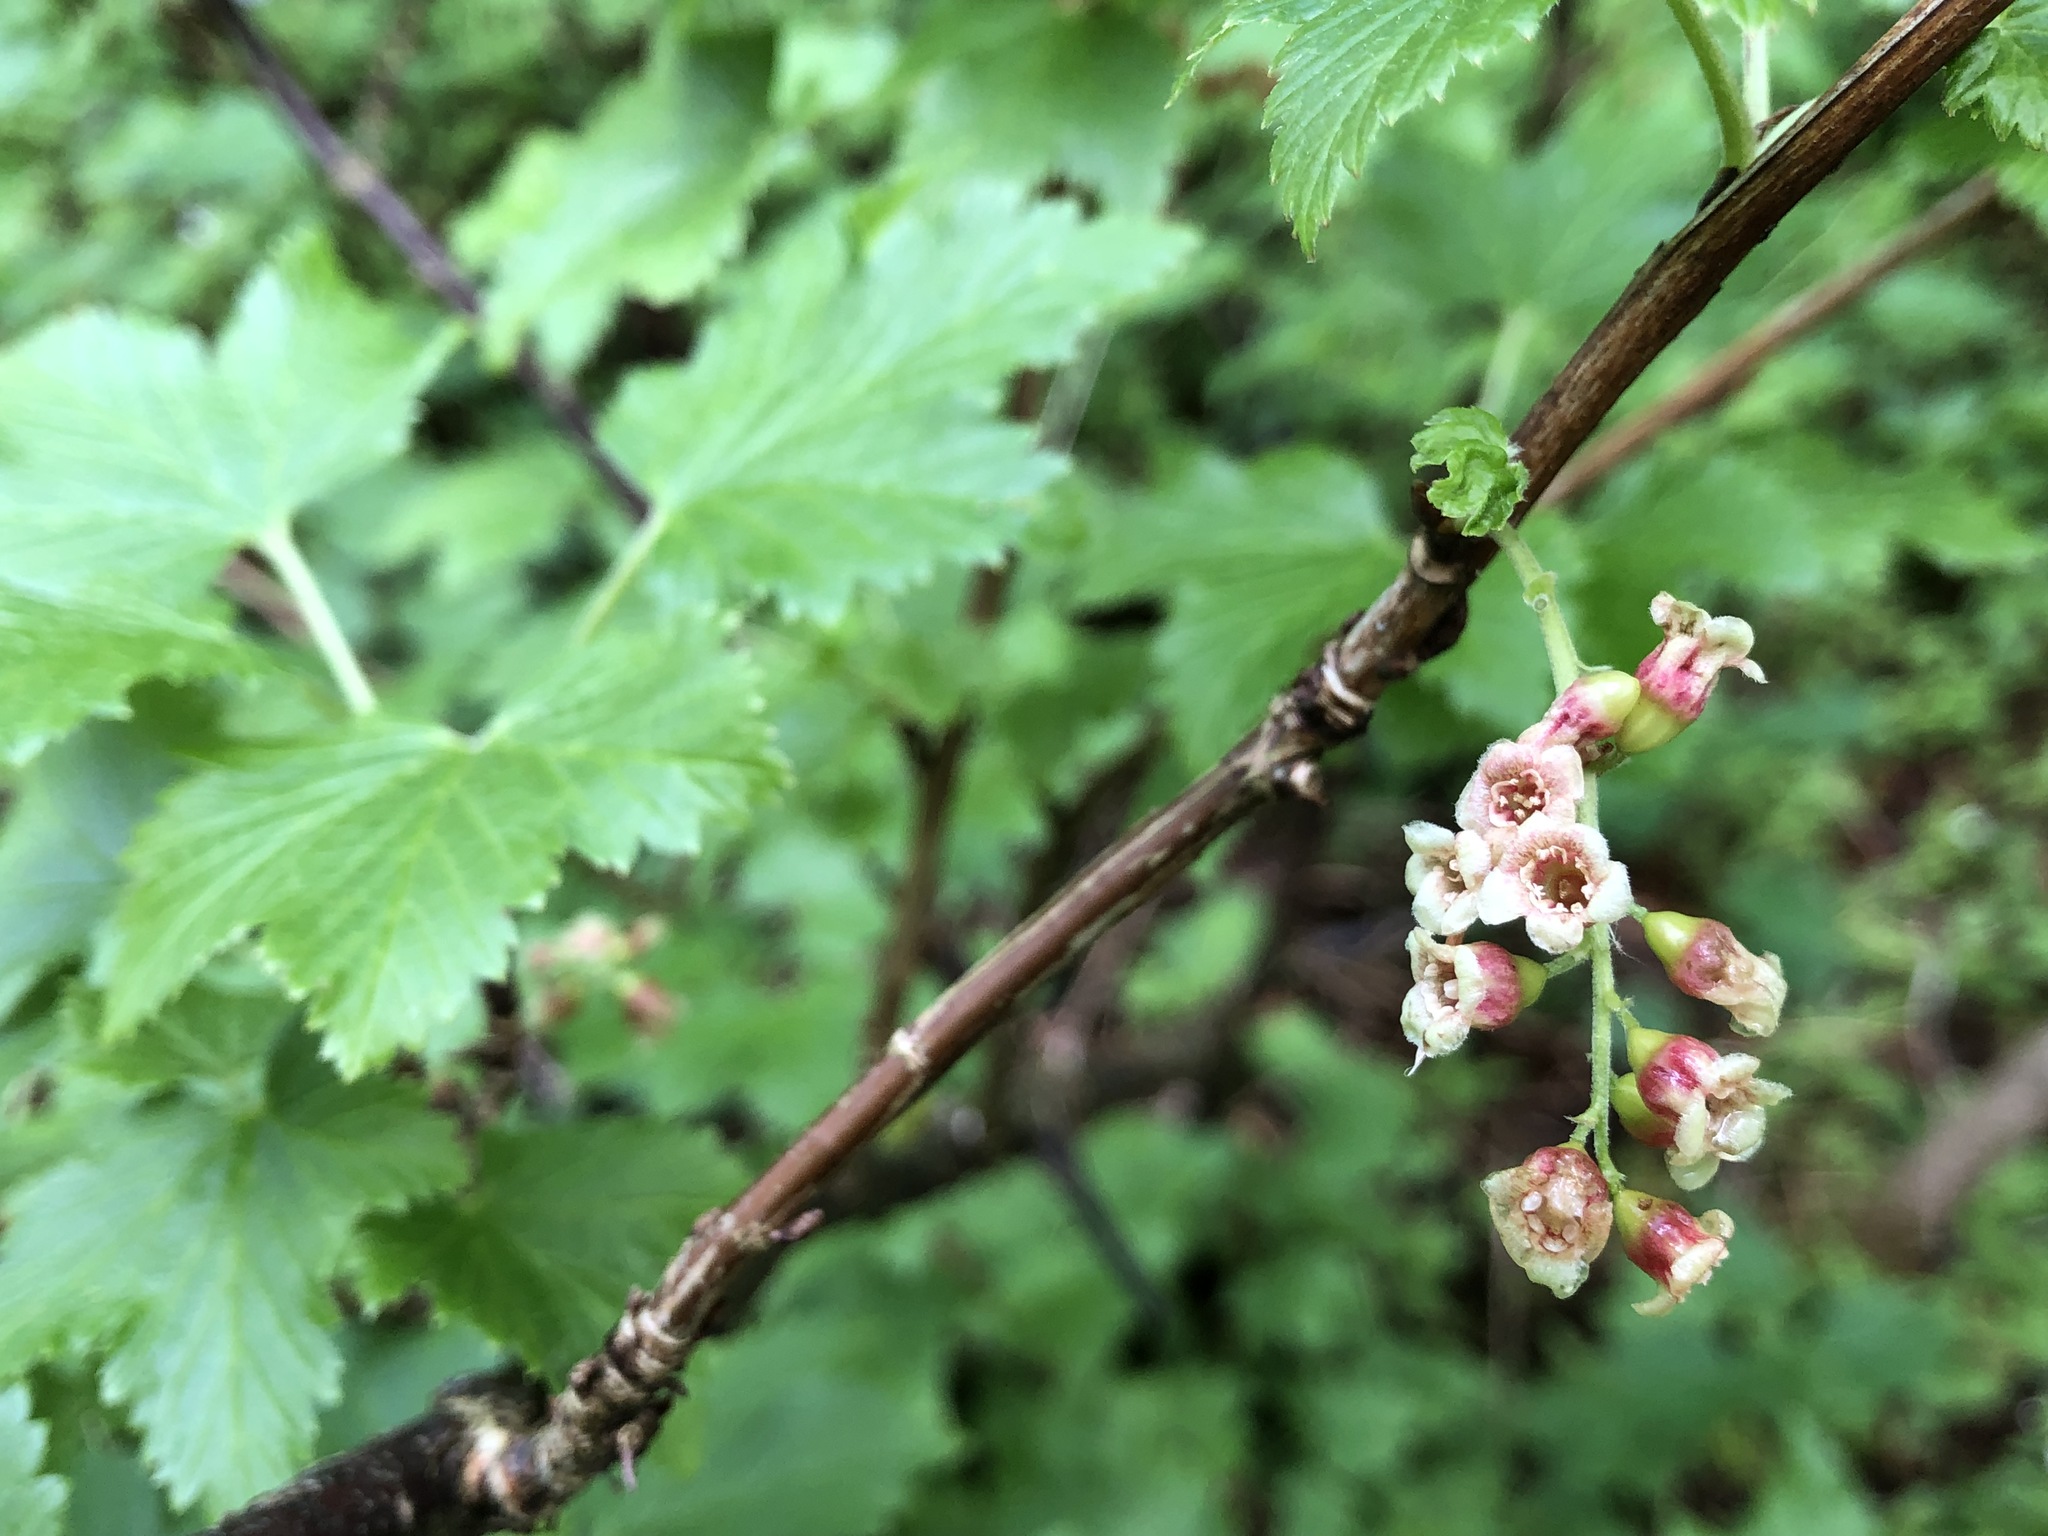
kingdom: Plantae
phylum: Tracheophyta
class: Magnoliopsida
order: Saxifragales
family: Grossulariaceae
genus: Ribes
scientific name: Ribes petraeum
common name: Rock currant
